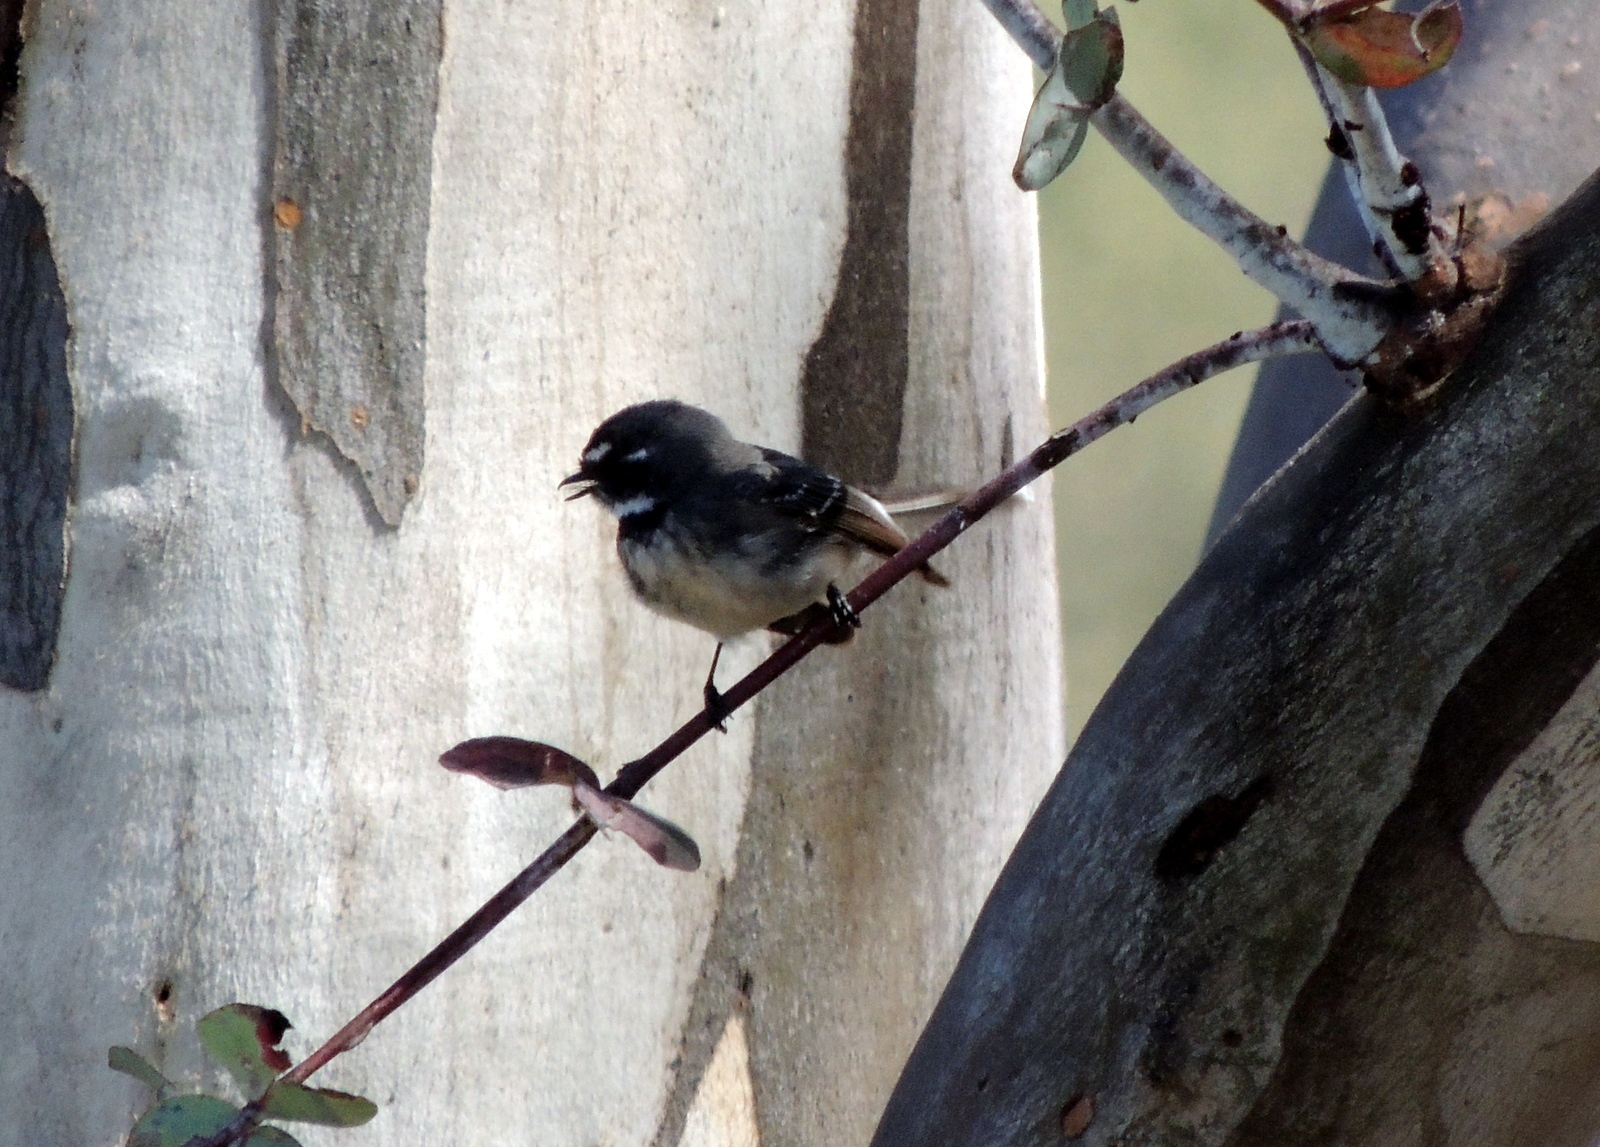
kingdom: Animalia
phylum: Chordata
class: Aves
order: Passeriformes
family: Rhipiduridae
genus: Rhipidura
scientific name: Rhipidura albiscapa
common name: Grey fantail
